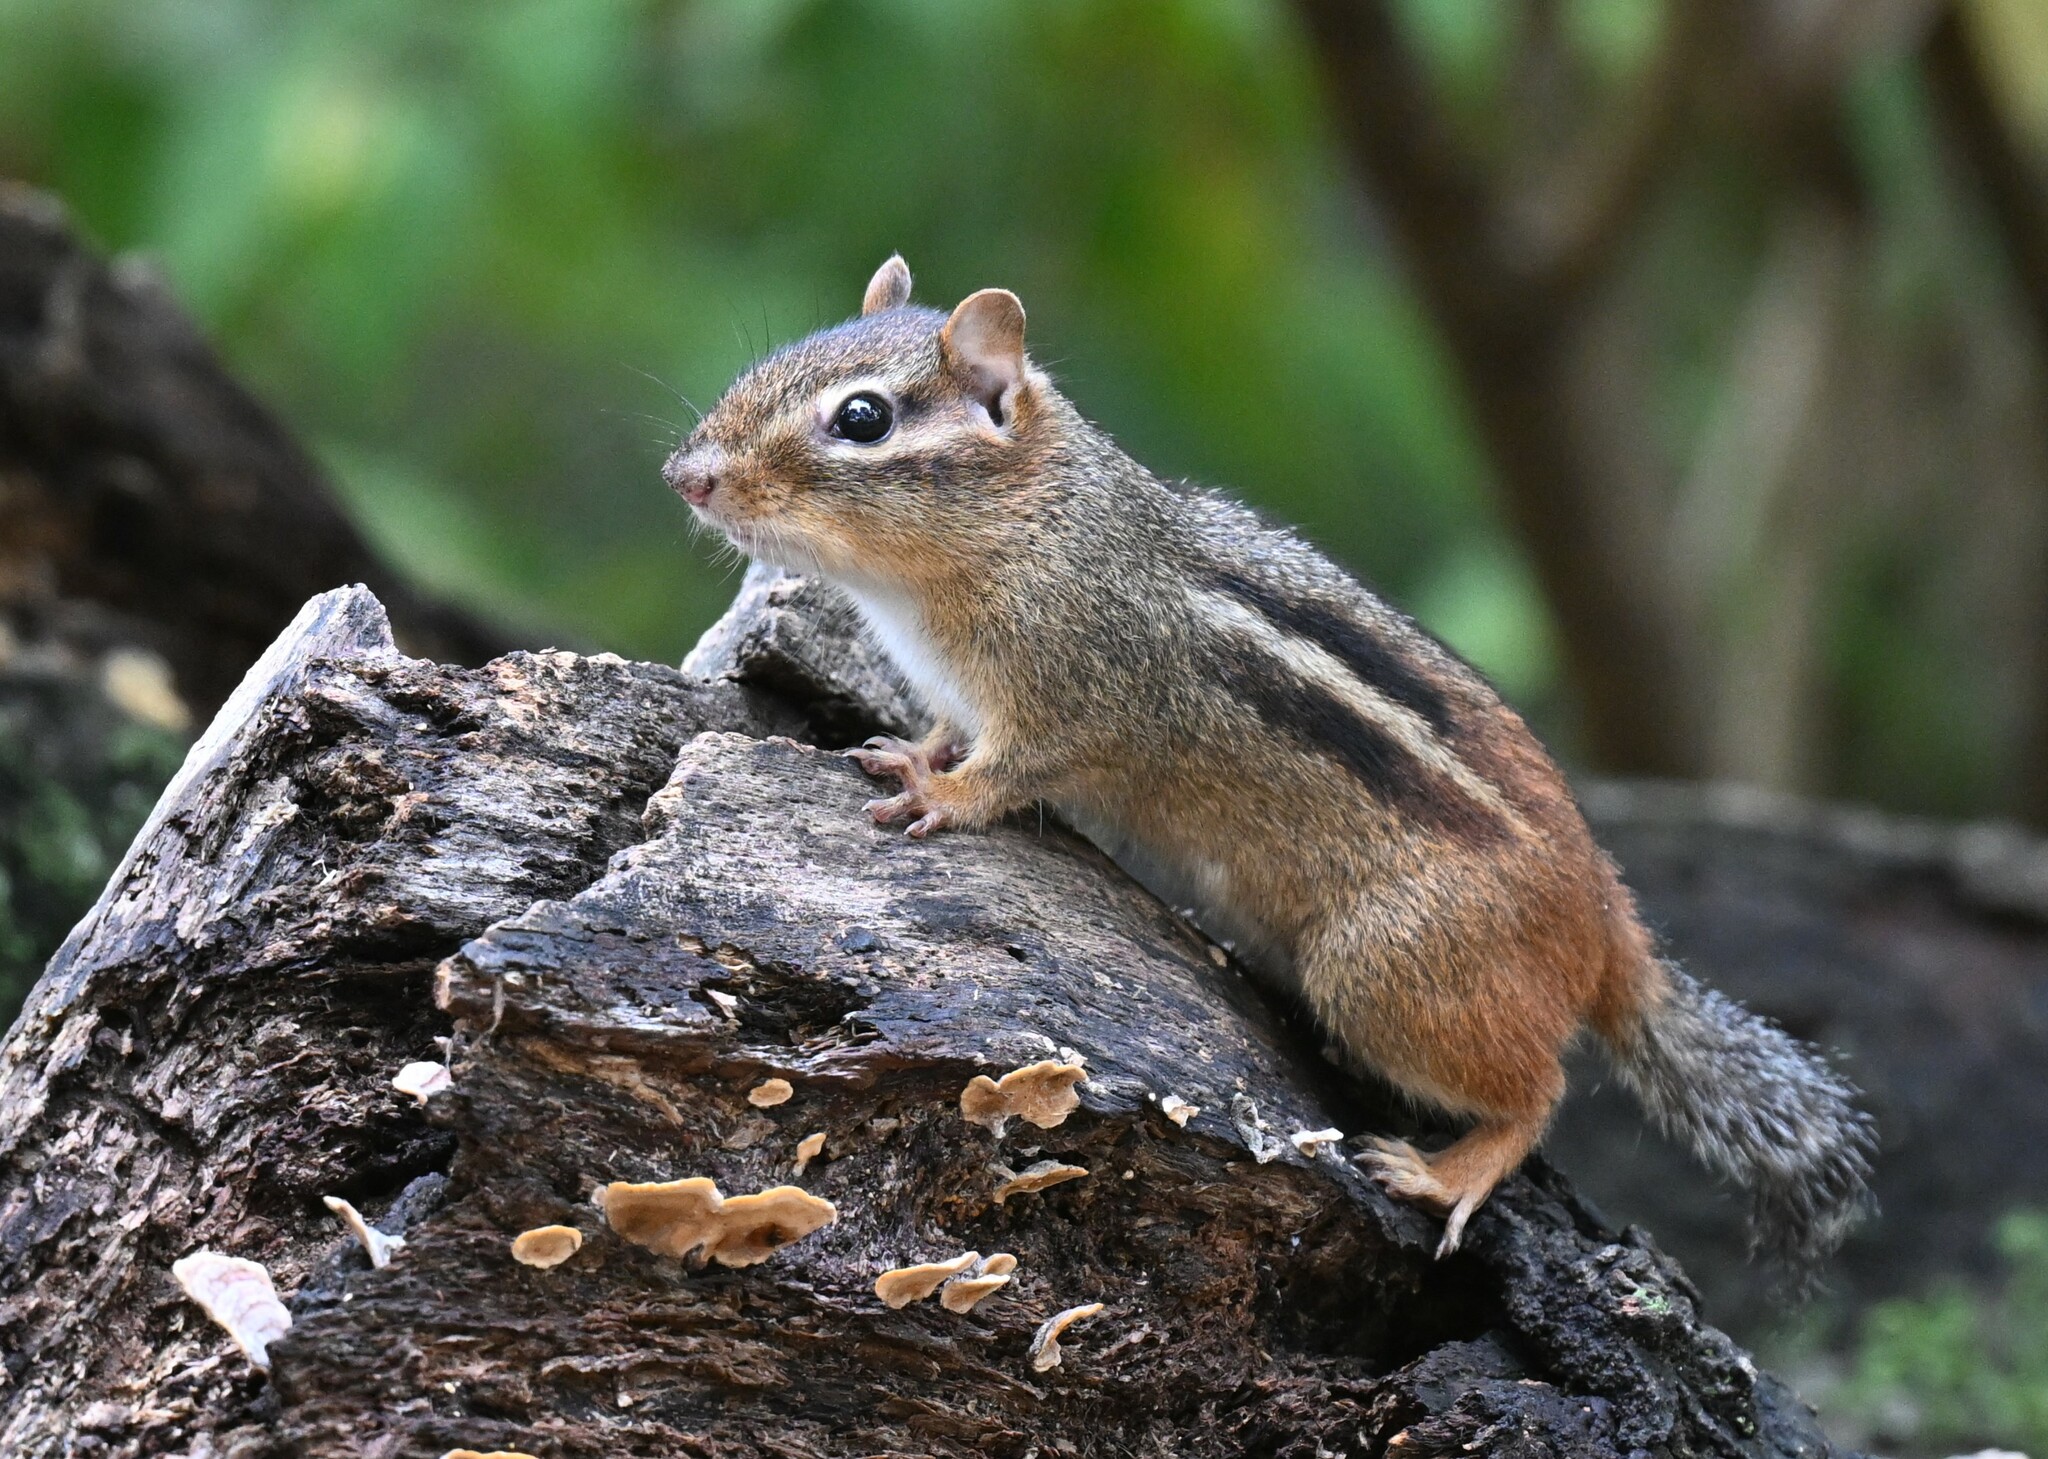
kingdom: Animalia
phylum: Chordata
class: Mammalia
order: Rodentia
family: Sciuridae
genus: Tamias
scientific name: Tamias striatus
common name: Eastern chipmunk
